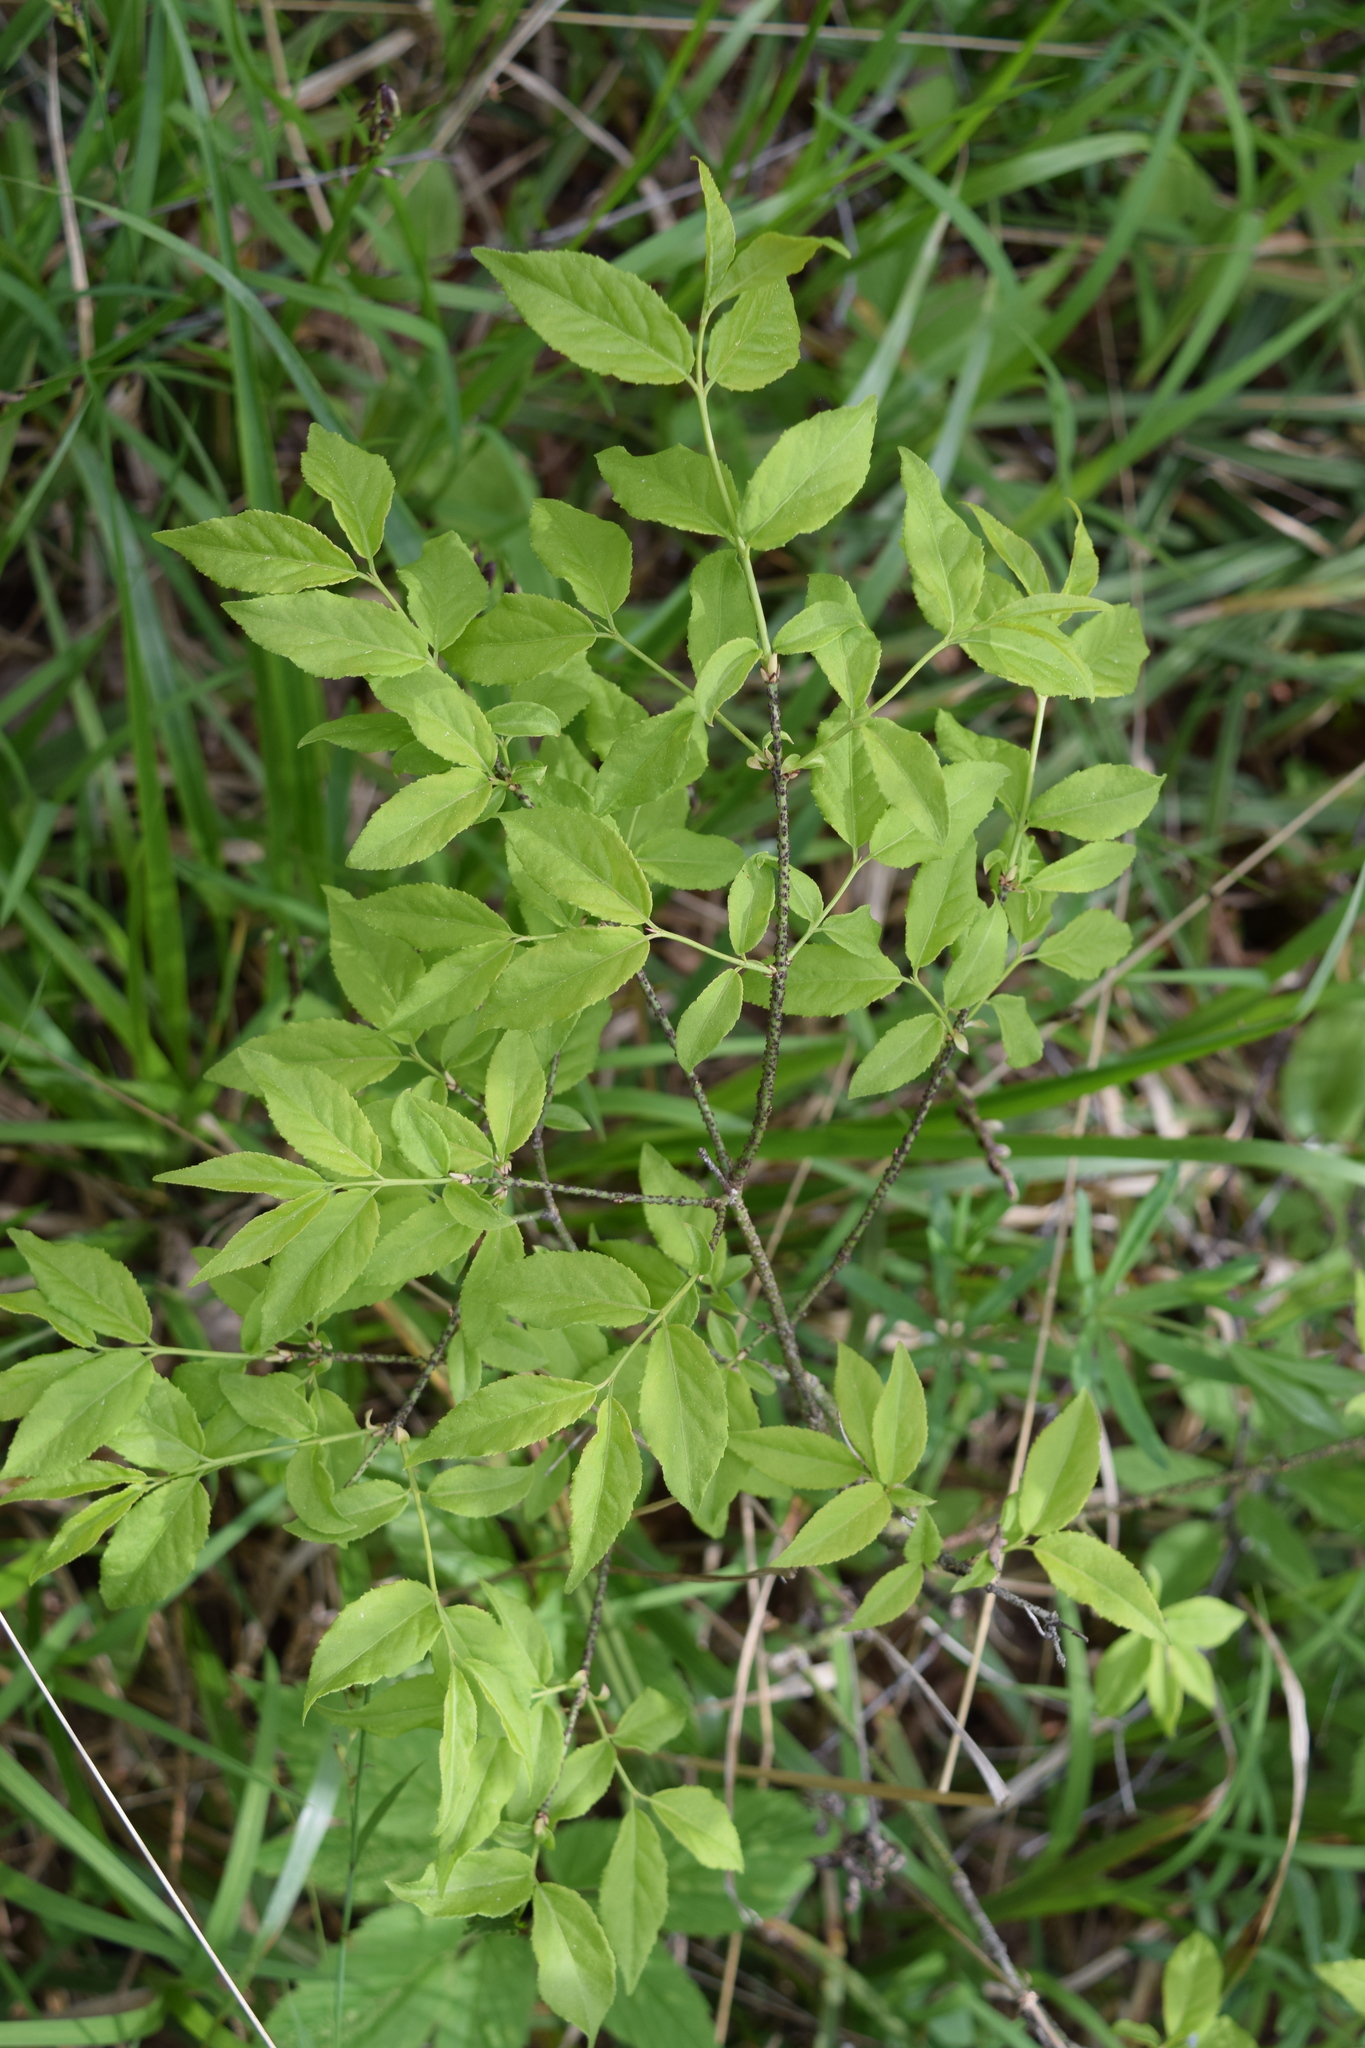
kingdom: Plantae
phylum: Tracheophyta
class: Magnoliopsida
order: Celastrales
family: Celastraceae
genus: Euonymus
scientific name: Euonymus verrucosus
